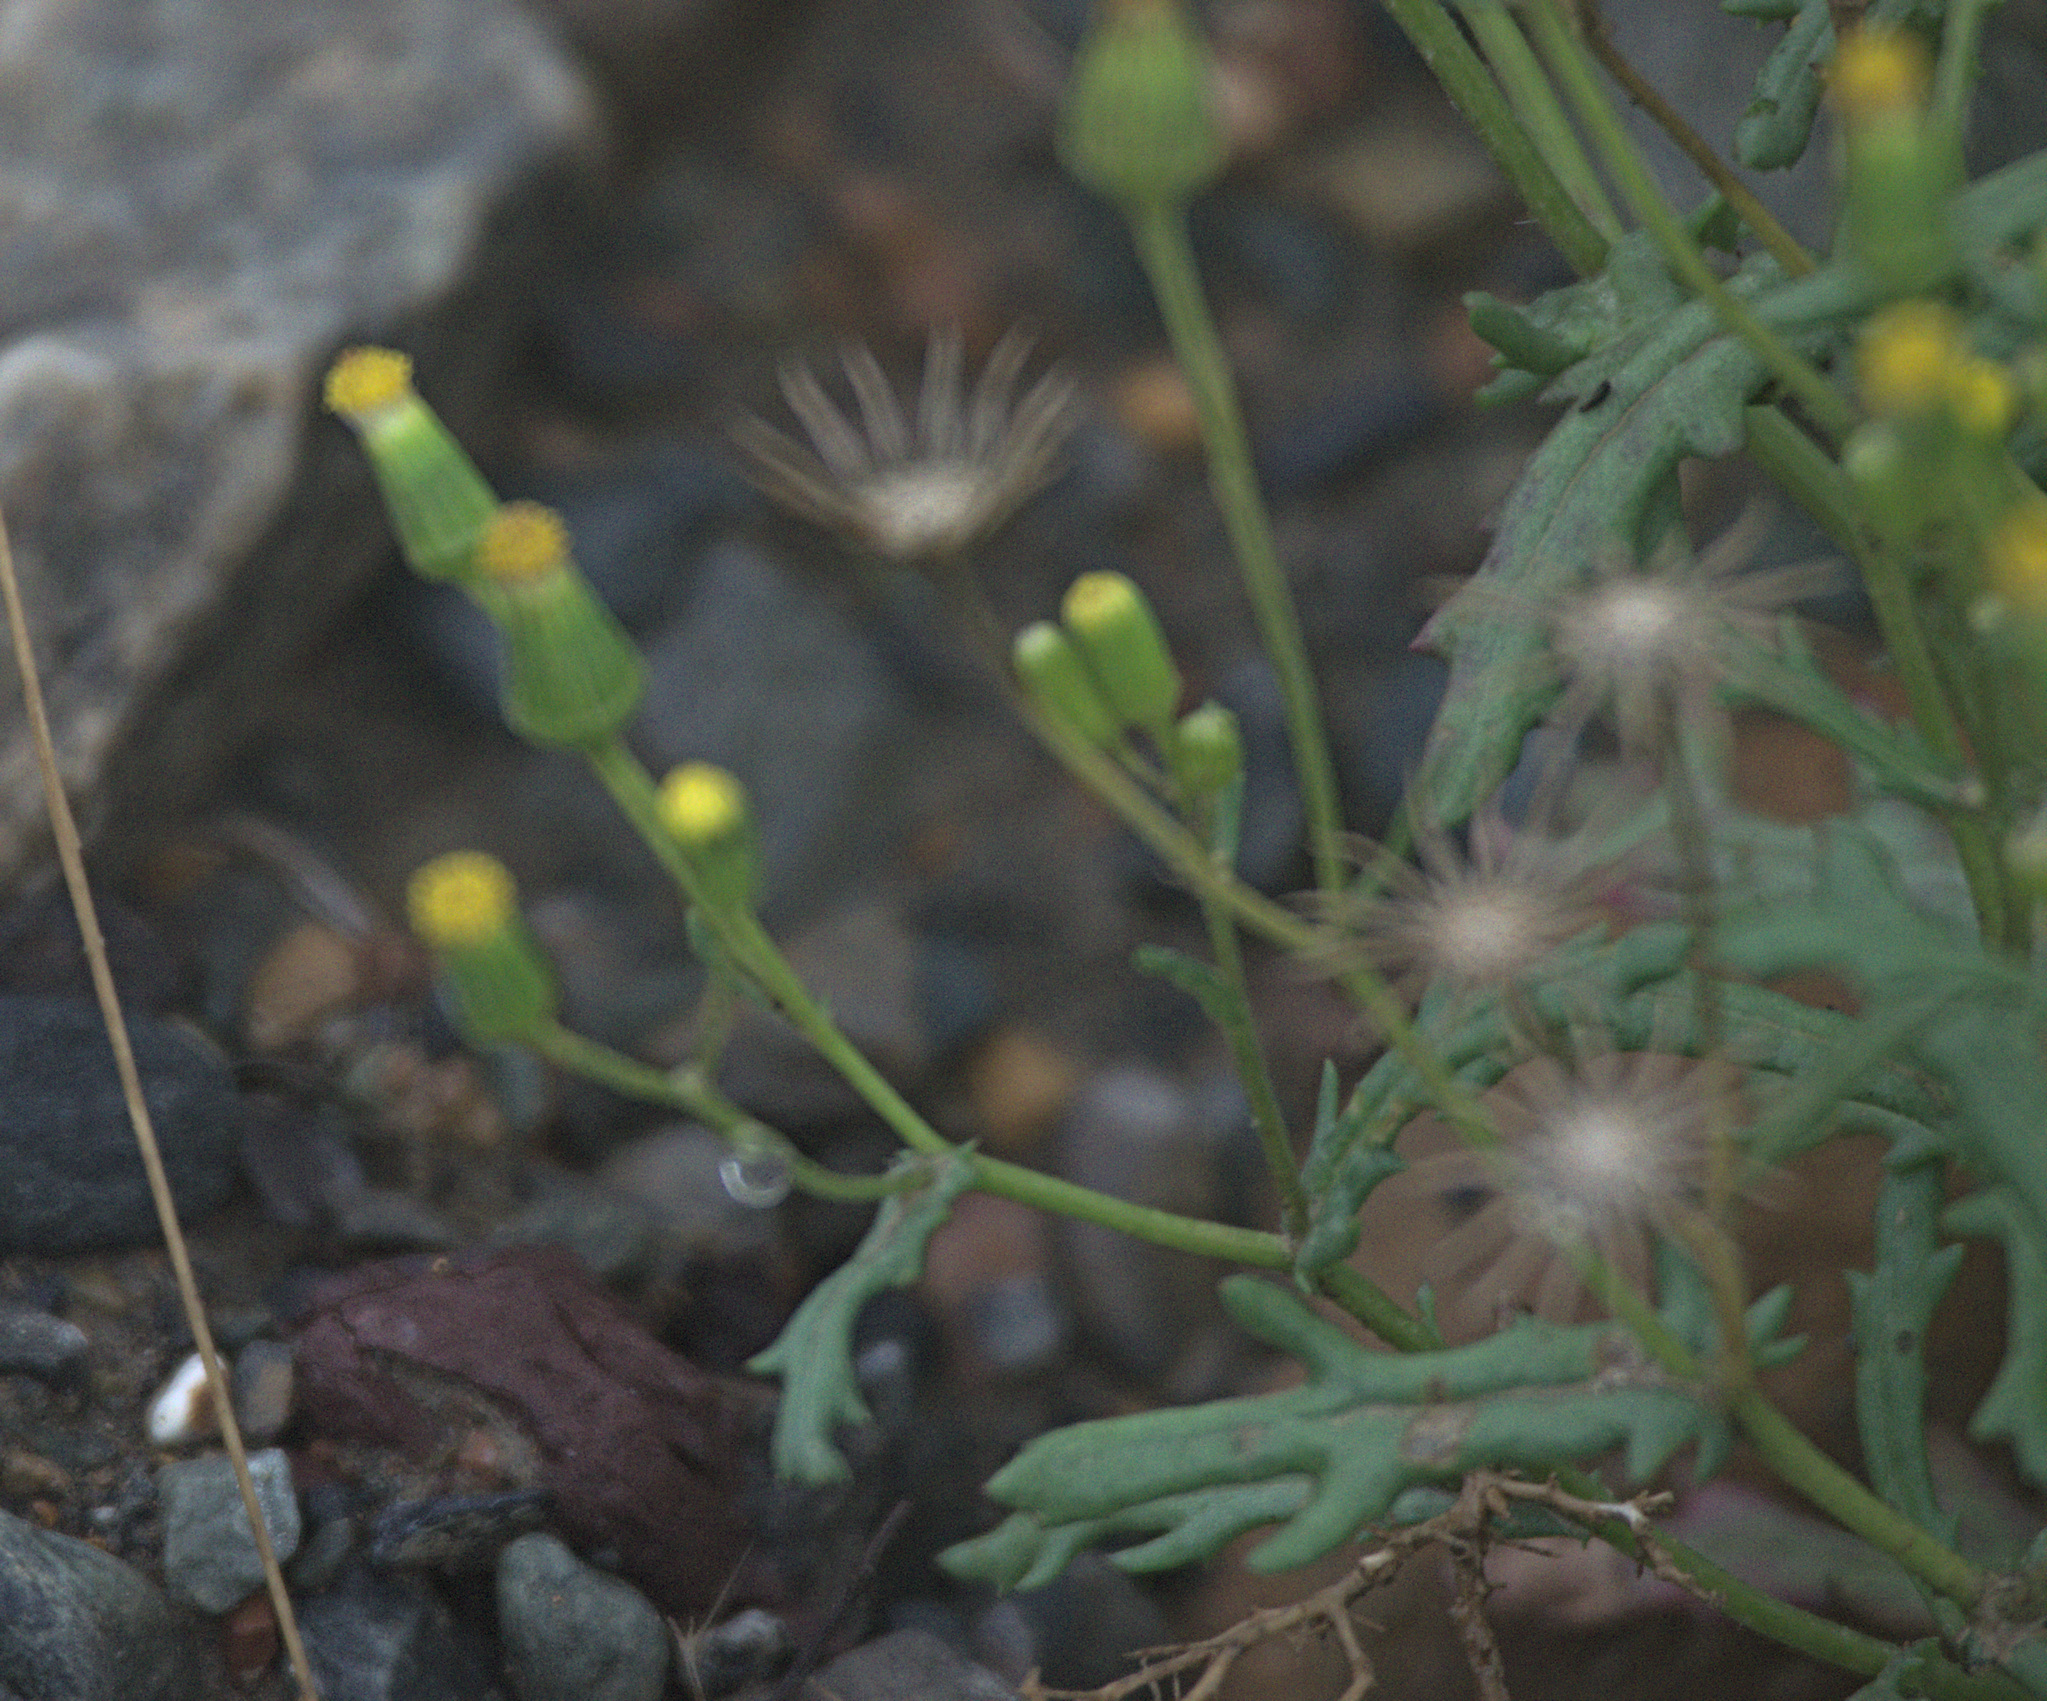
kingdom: Plantae
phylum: Tracheophyta
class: Magnoliopsida
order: Asterales
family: Asteraceae
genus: Senecio
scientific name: Senecio dubitabilis
